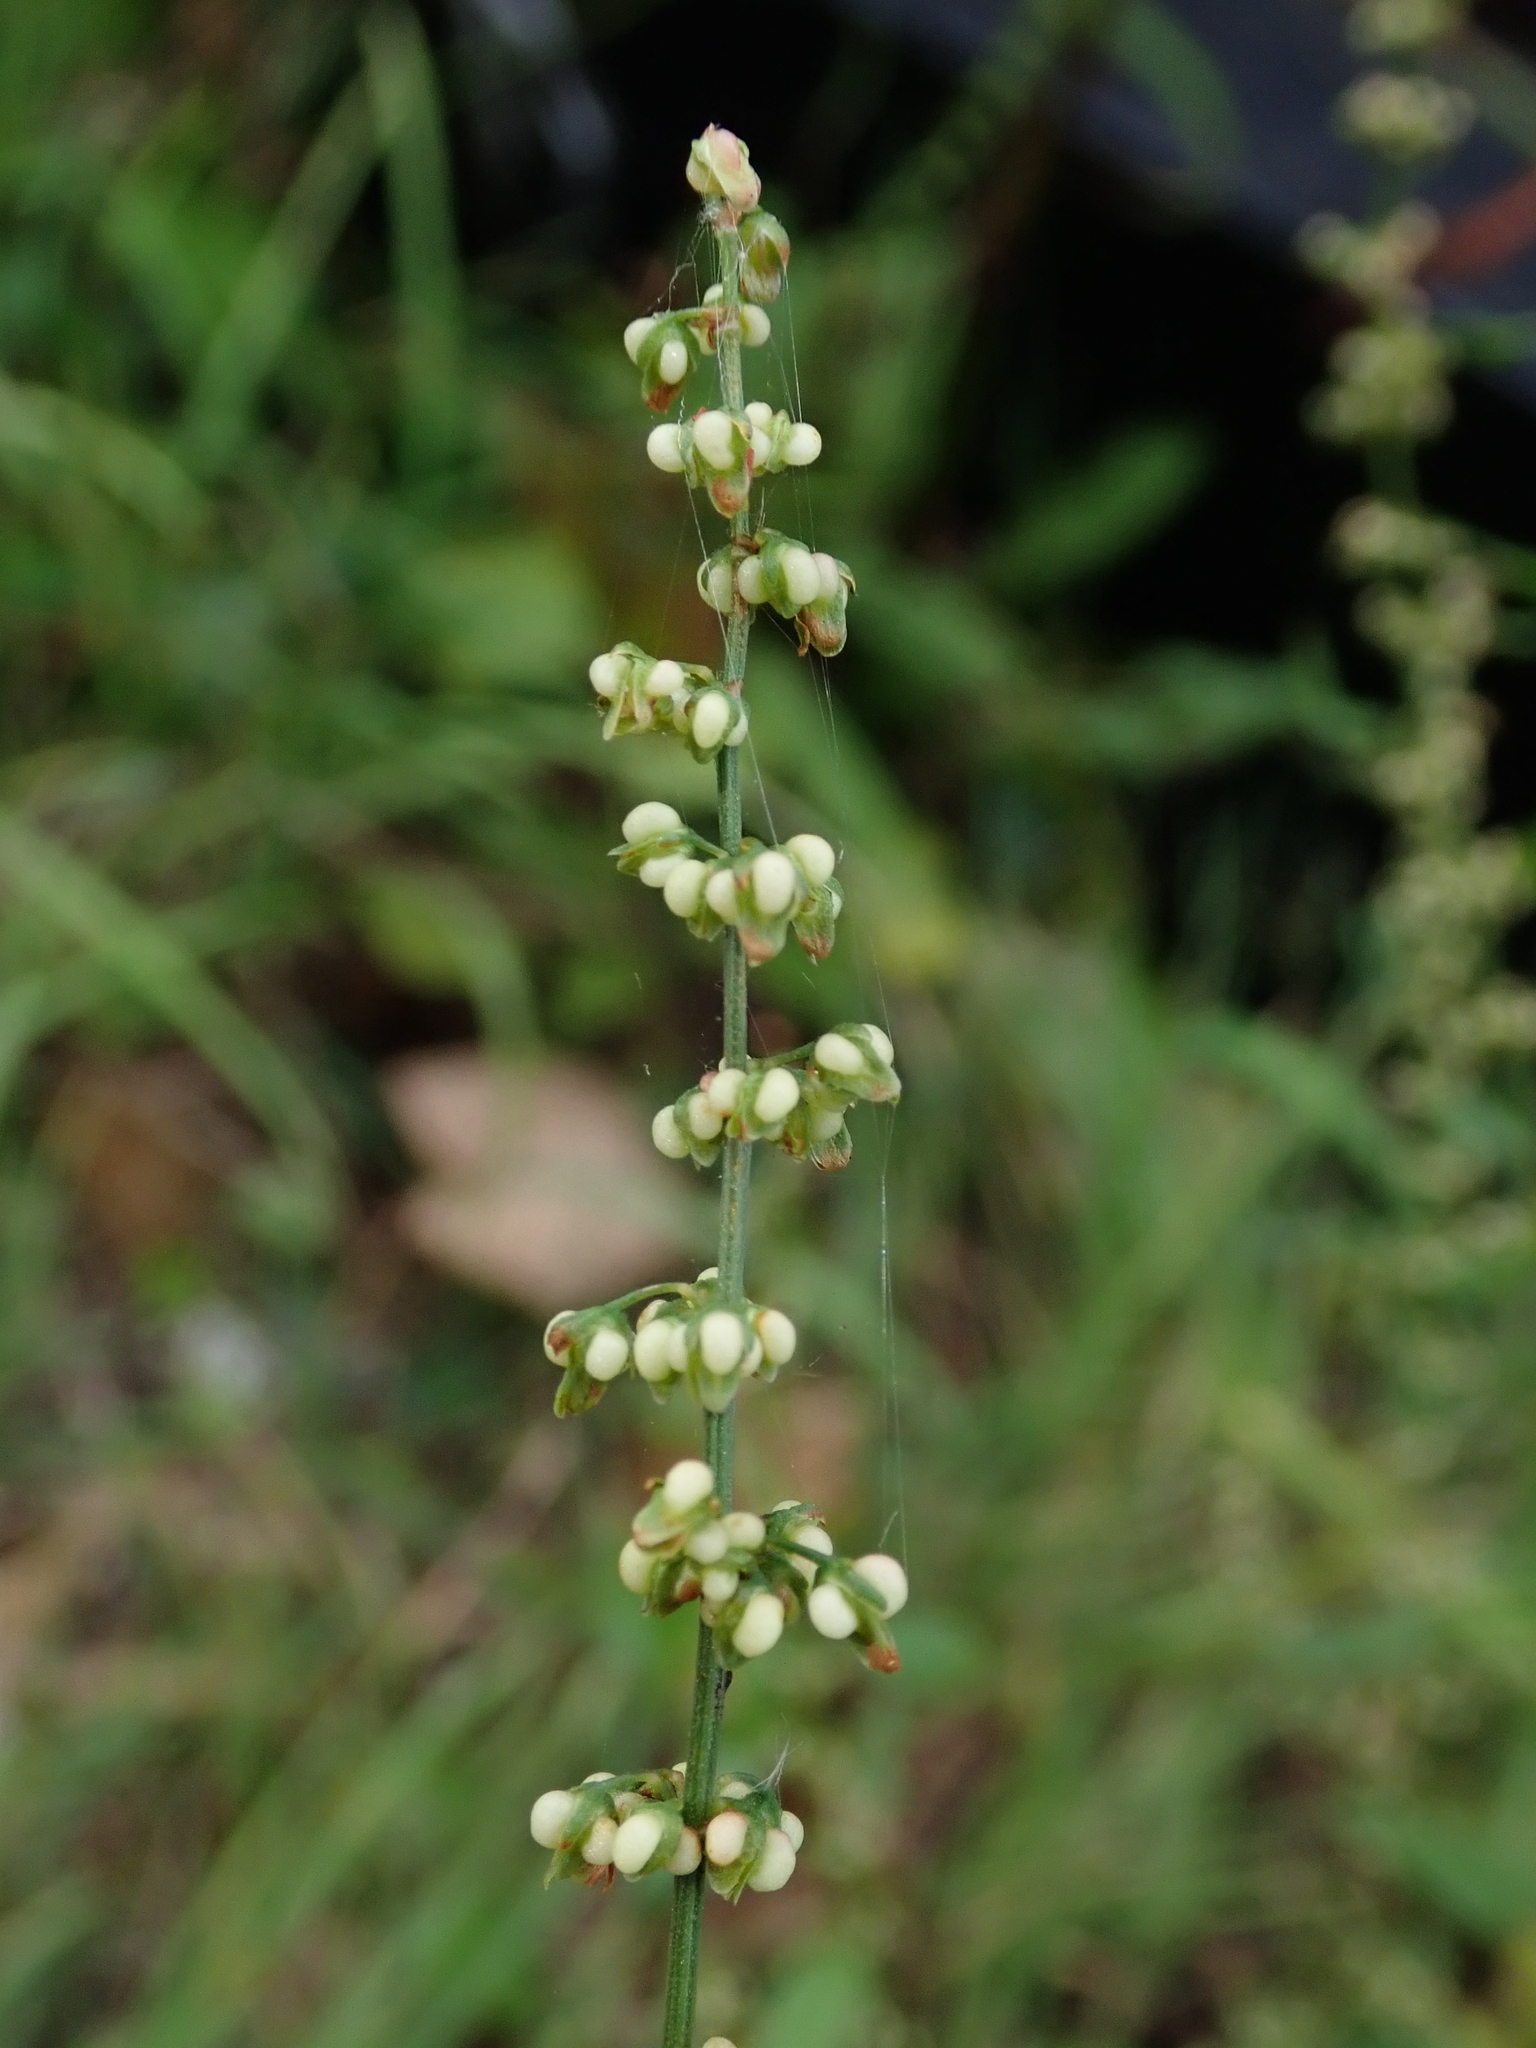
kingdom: Plantae
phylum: Tracheophyta
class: Magnoliopsida
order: Caryophyllales
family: Polygonaceae
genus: Rumex
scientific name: Rumex conglomeratus
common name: Clustered dock
